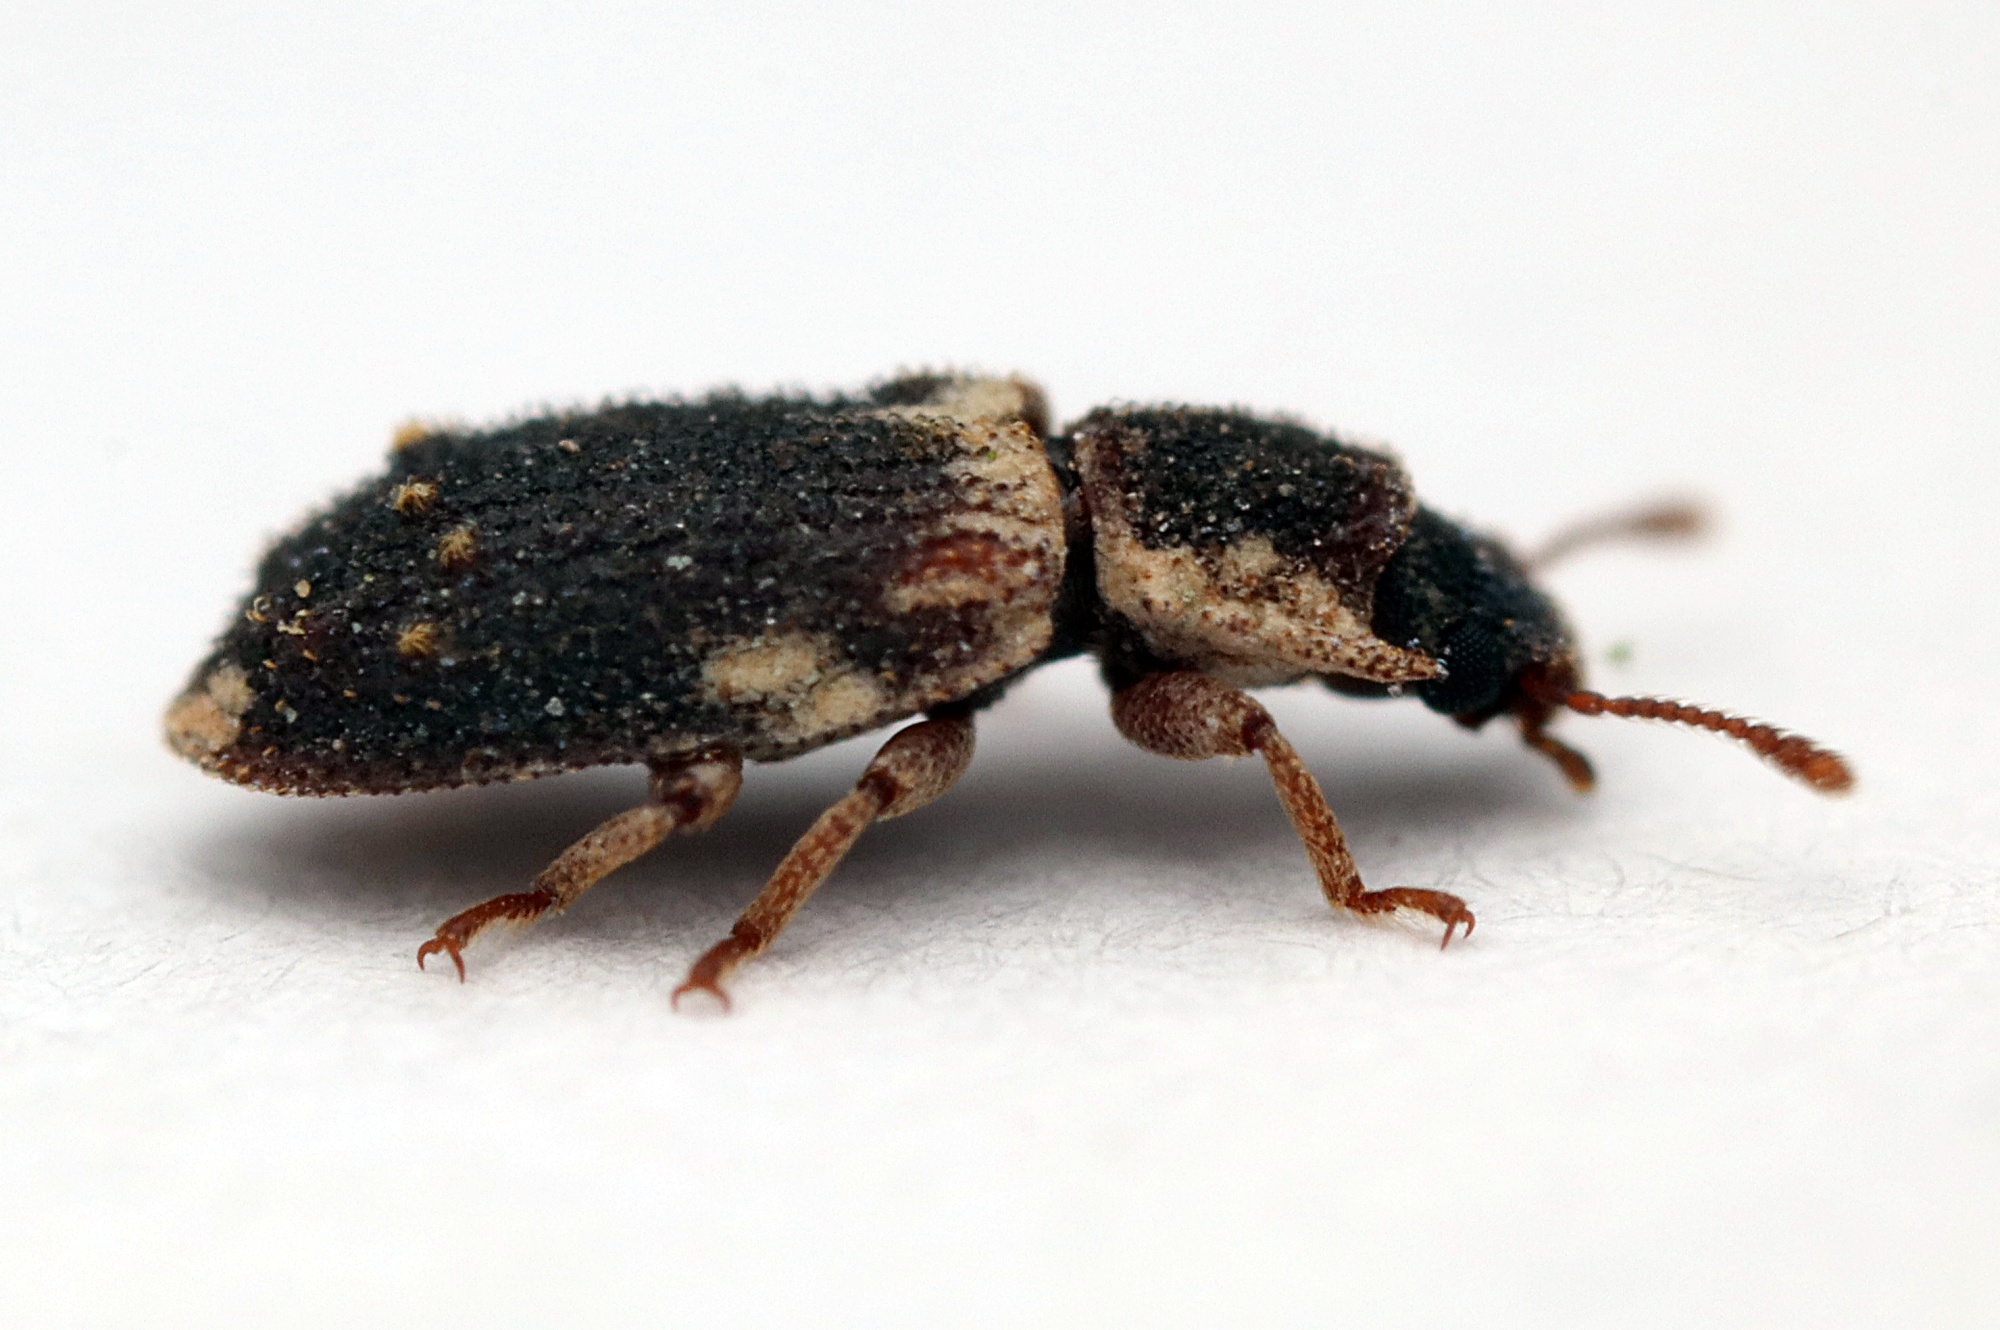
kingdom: Animalia
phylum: Arthropoda
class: Insecta
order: Coleoptera
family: Zopheridae
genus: Pristoderus
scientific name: Pristoderus
